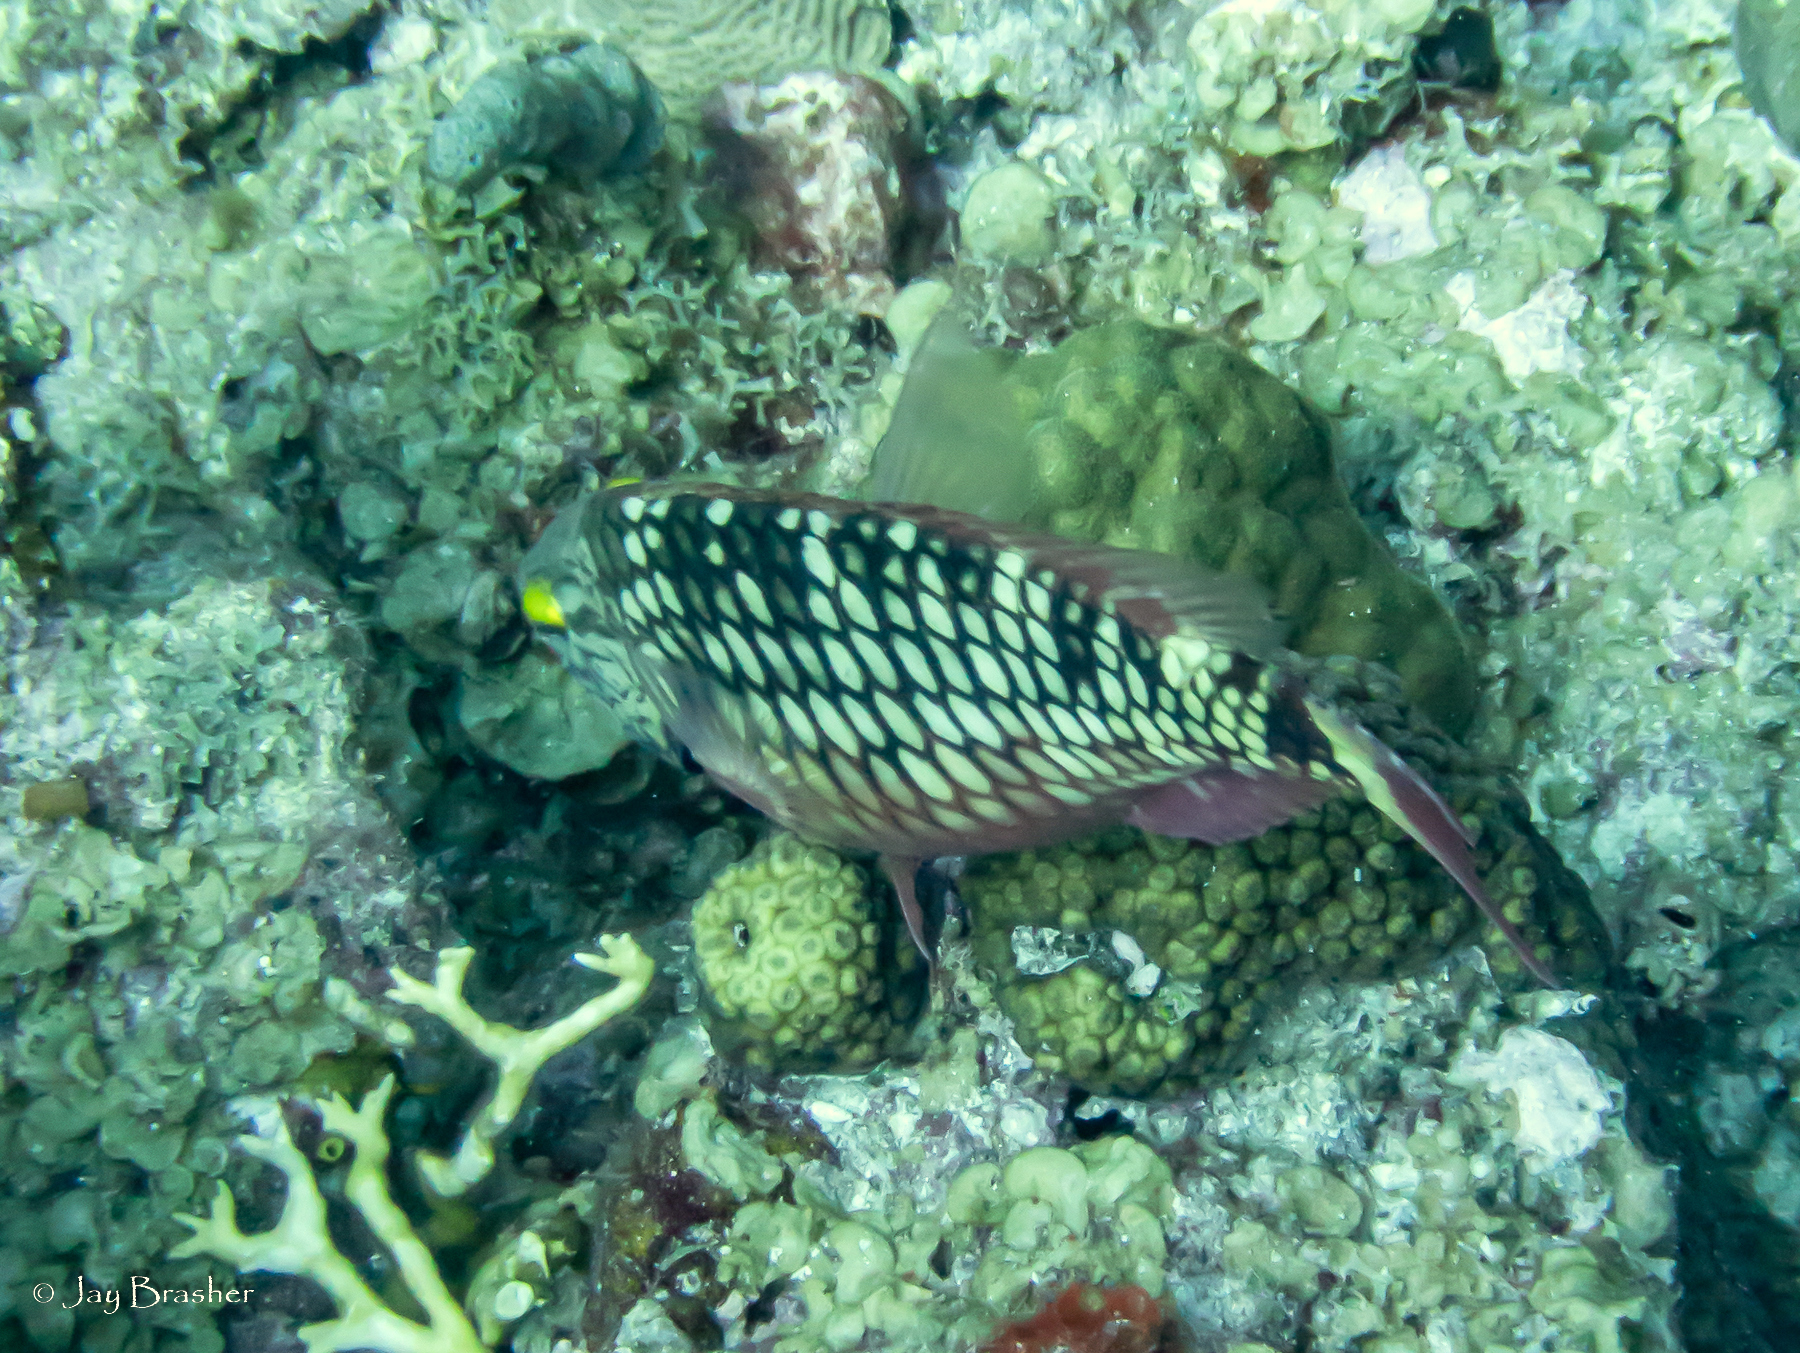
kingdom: Animalia
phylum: Chordata
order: Perciformes
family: Scaridae
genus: Sparisoma
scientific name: Sparisoma viride
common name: Stoplight parrotfish
